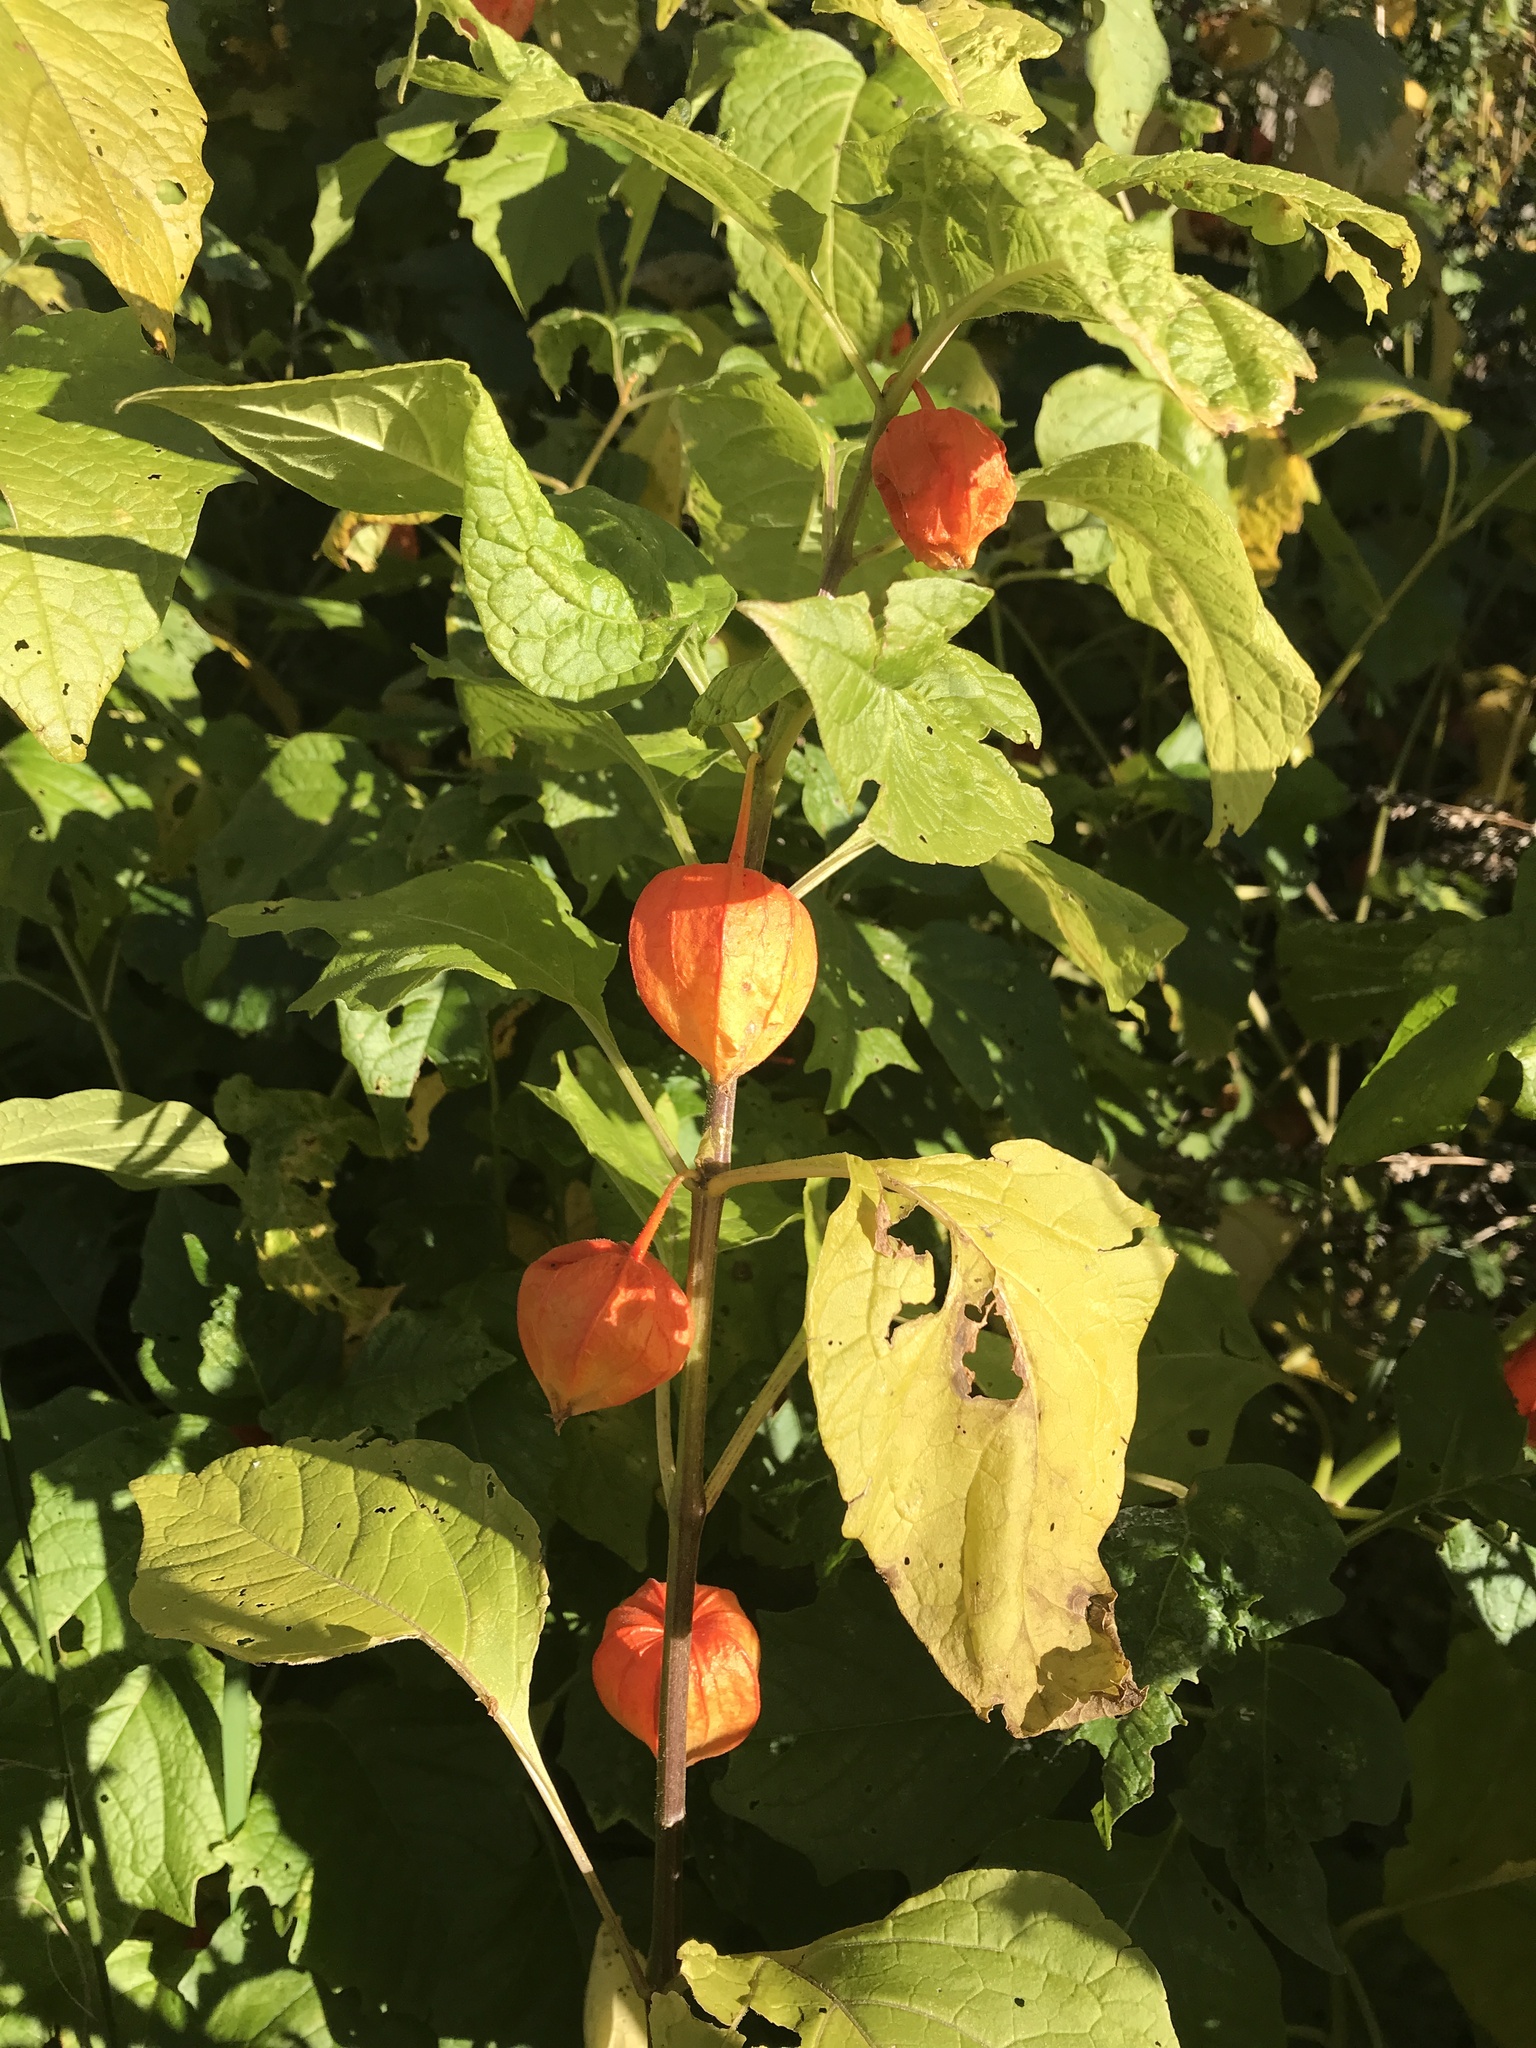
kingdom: Plantae
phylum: Tracheophyta
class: Magnoliopsida
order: Solanales
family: Solanaceae
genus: Alkekengi
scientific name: Alkekengi officinarum
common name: Japanese-lantern
